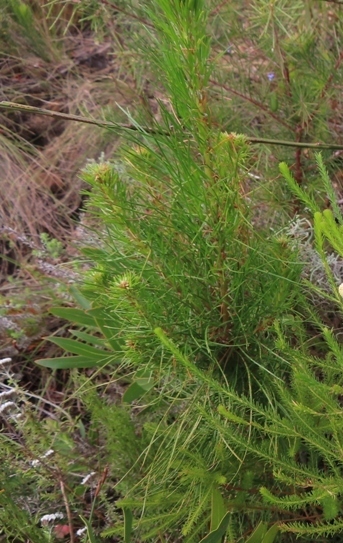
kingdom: Plantae
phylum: Tracheophyta
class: Pinopsida
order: Pinales
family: Pinaceae
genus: Pinus
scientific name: Pinus pinaster
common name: Maritime pine
